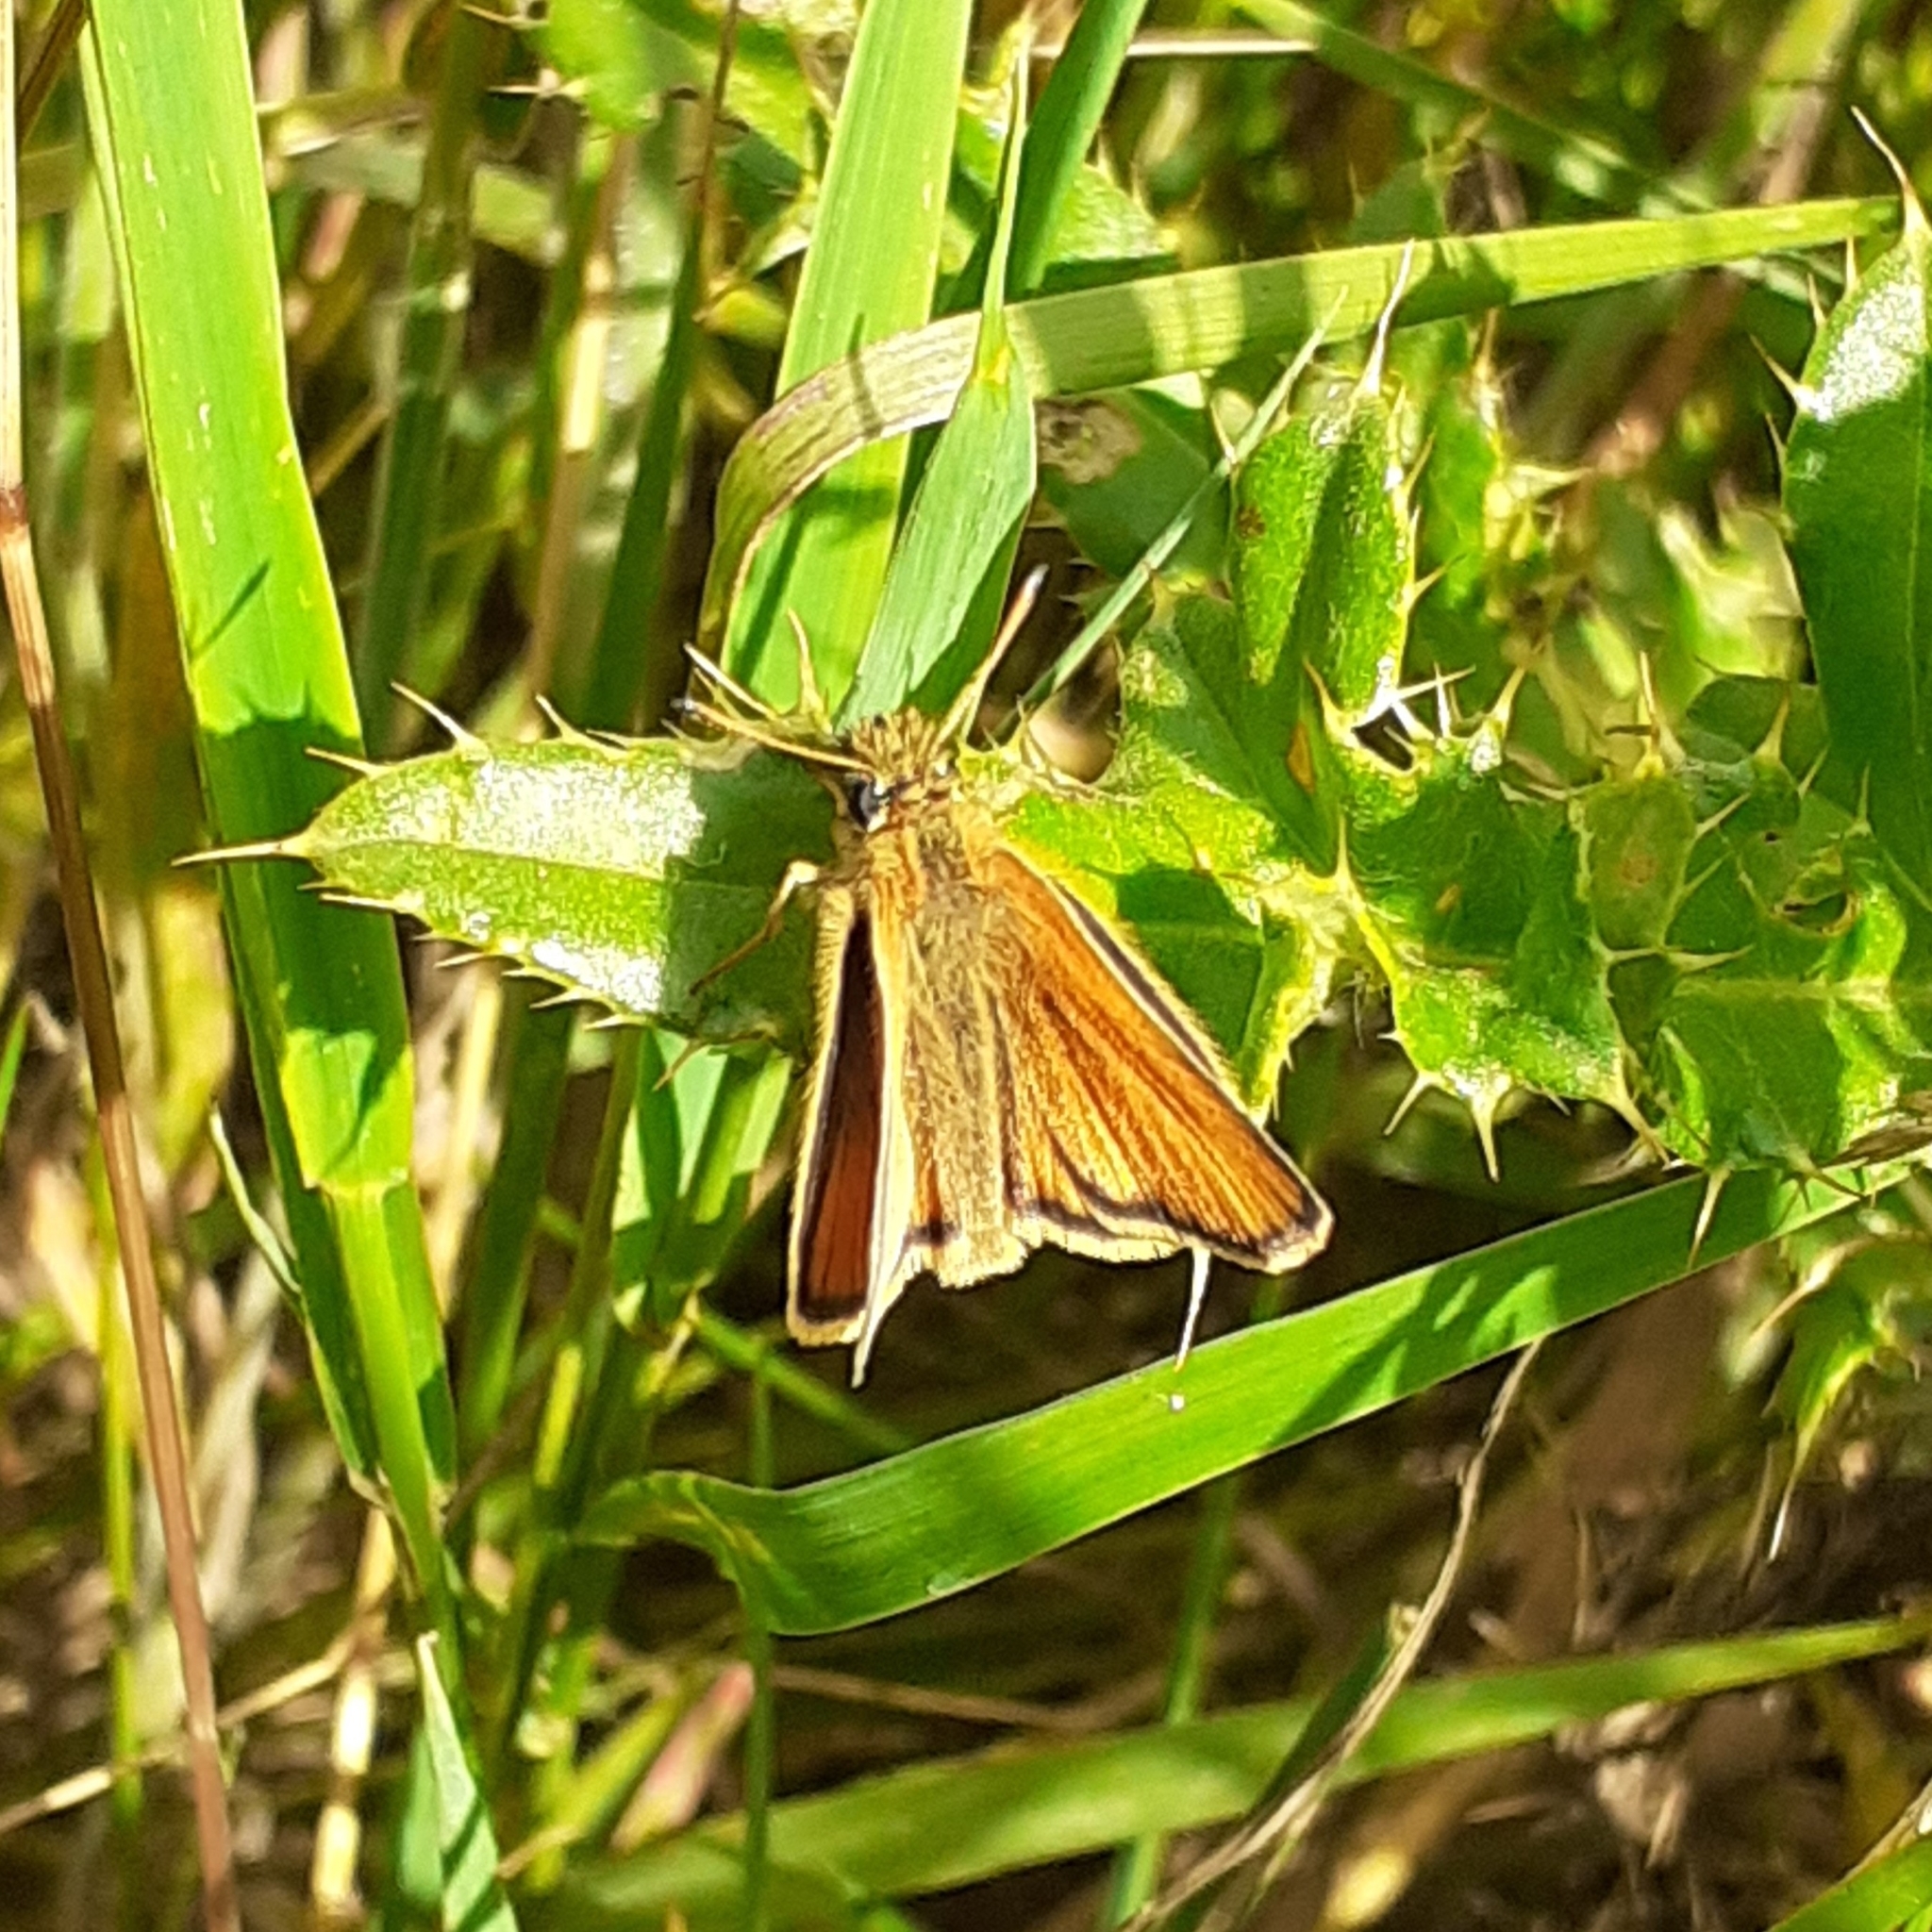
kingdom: Animalia
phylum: Arthropoda
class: Insecta
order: Lepidoptera
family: Hesperiidae
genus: Thymelicus
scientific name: Thymelicus lineola
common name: Essex skipper
